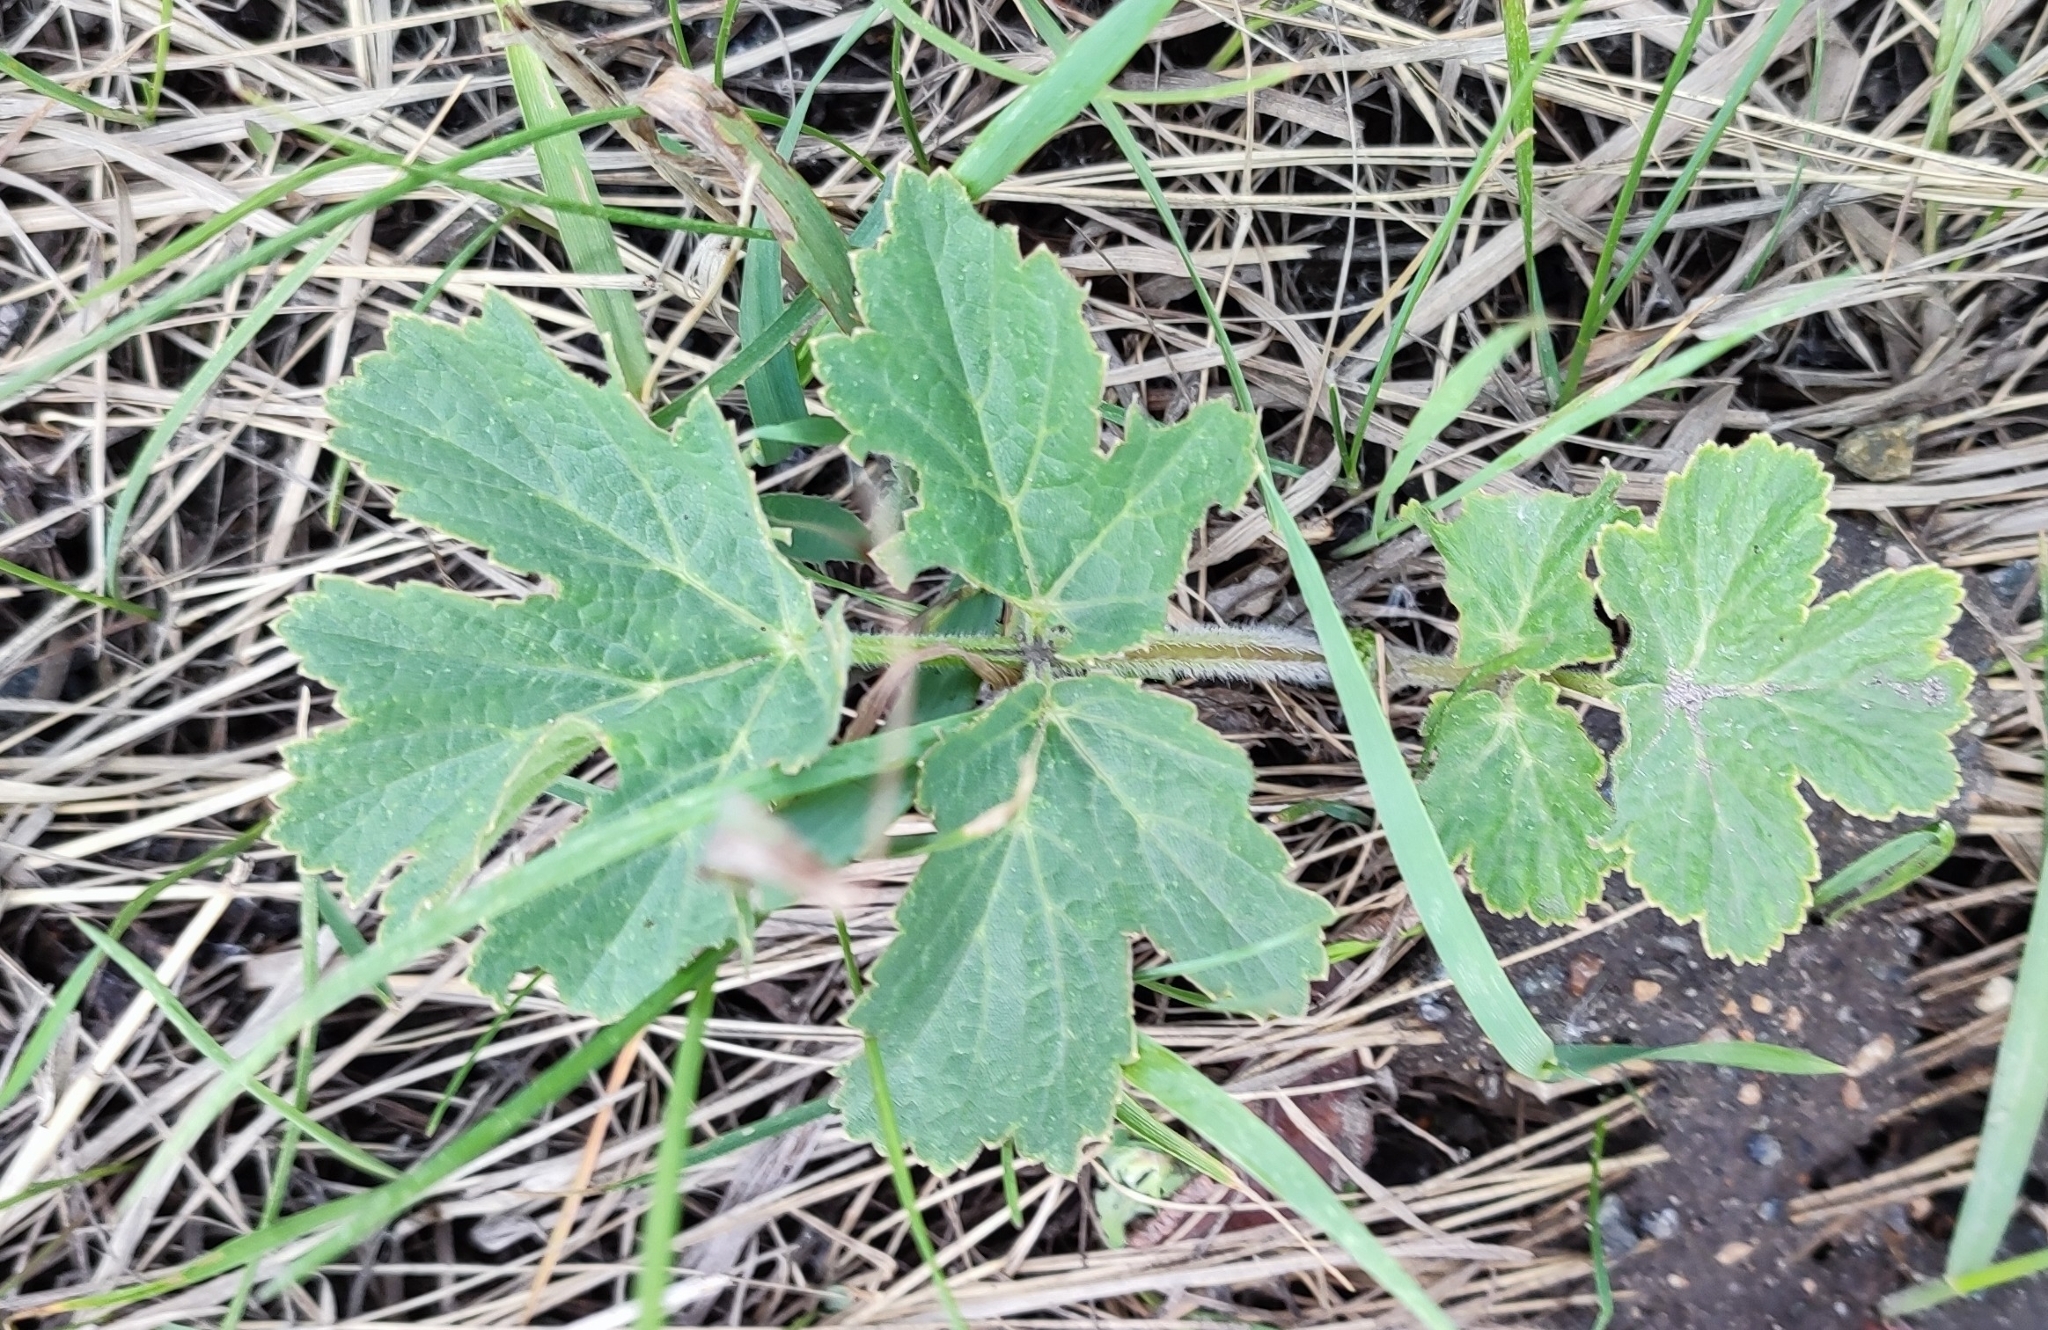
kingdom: Plantae
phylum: Tracheophyta
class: Magnoliopsida
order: Apiales
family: Apiaceae
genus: Heracleum
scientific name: Heracleum sphondylium
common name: Hogweed
